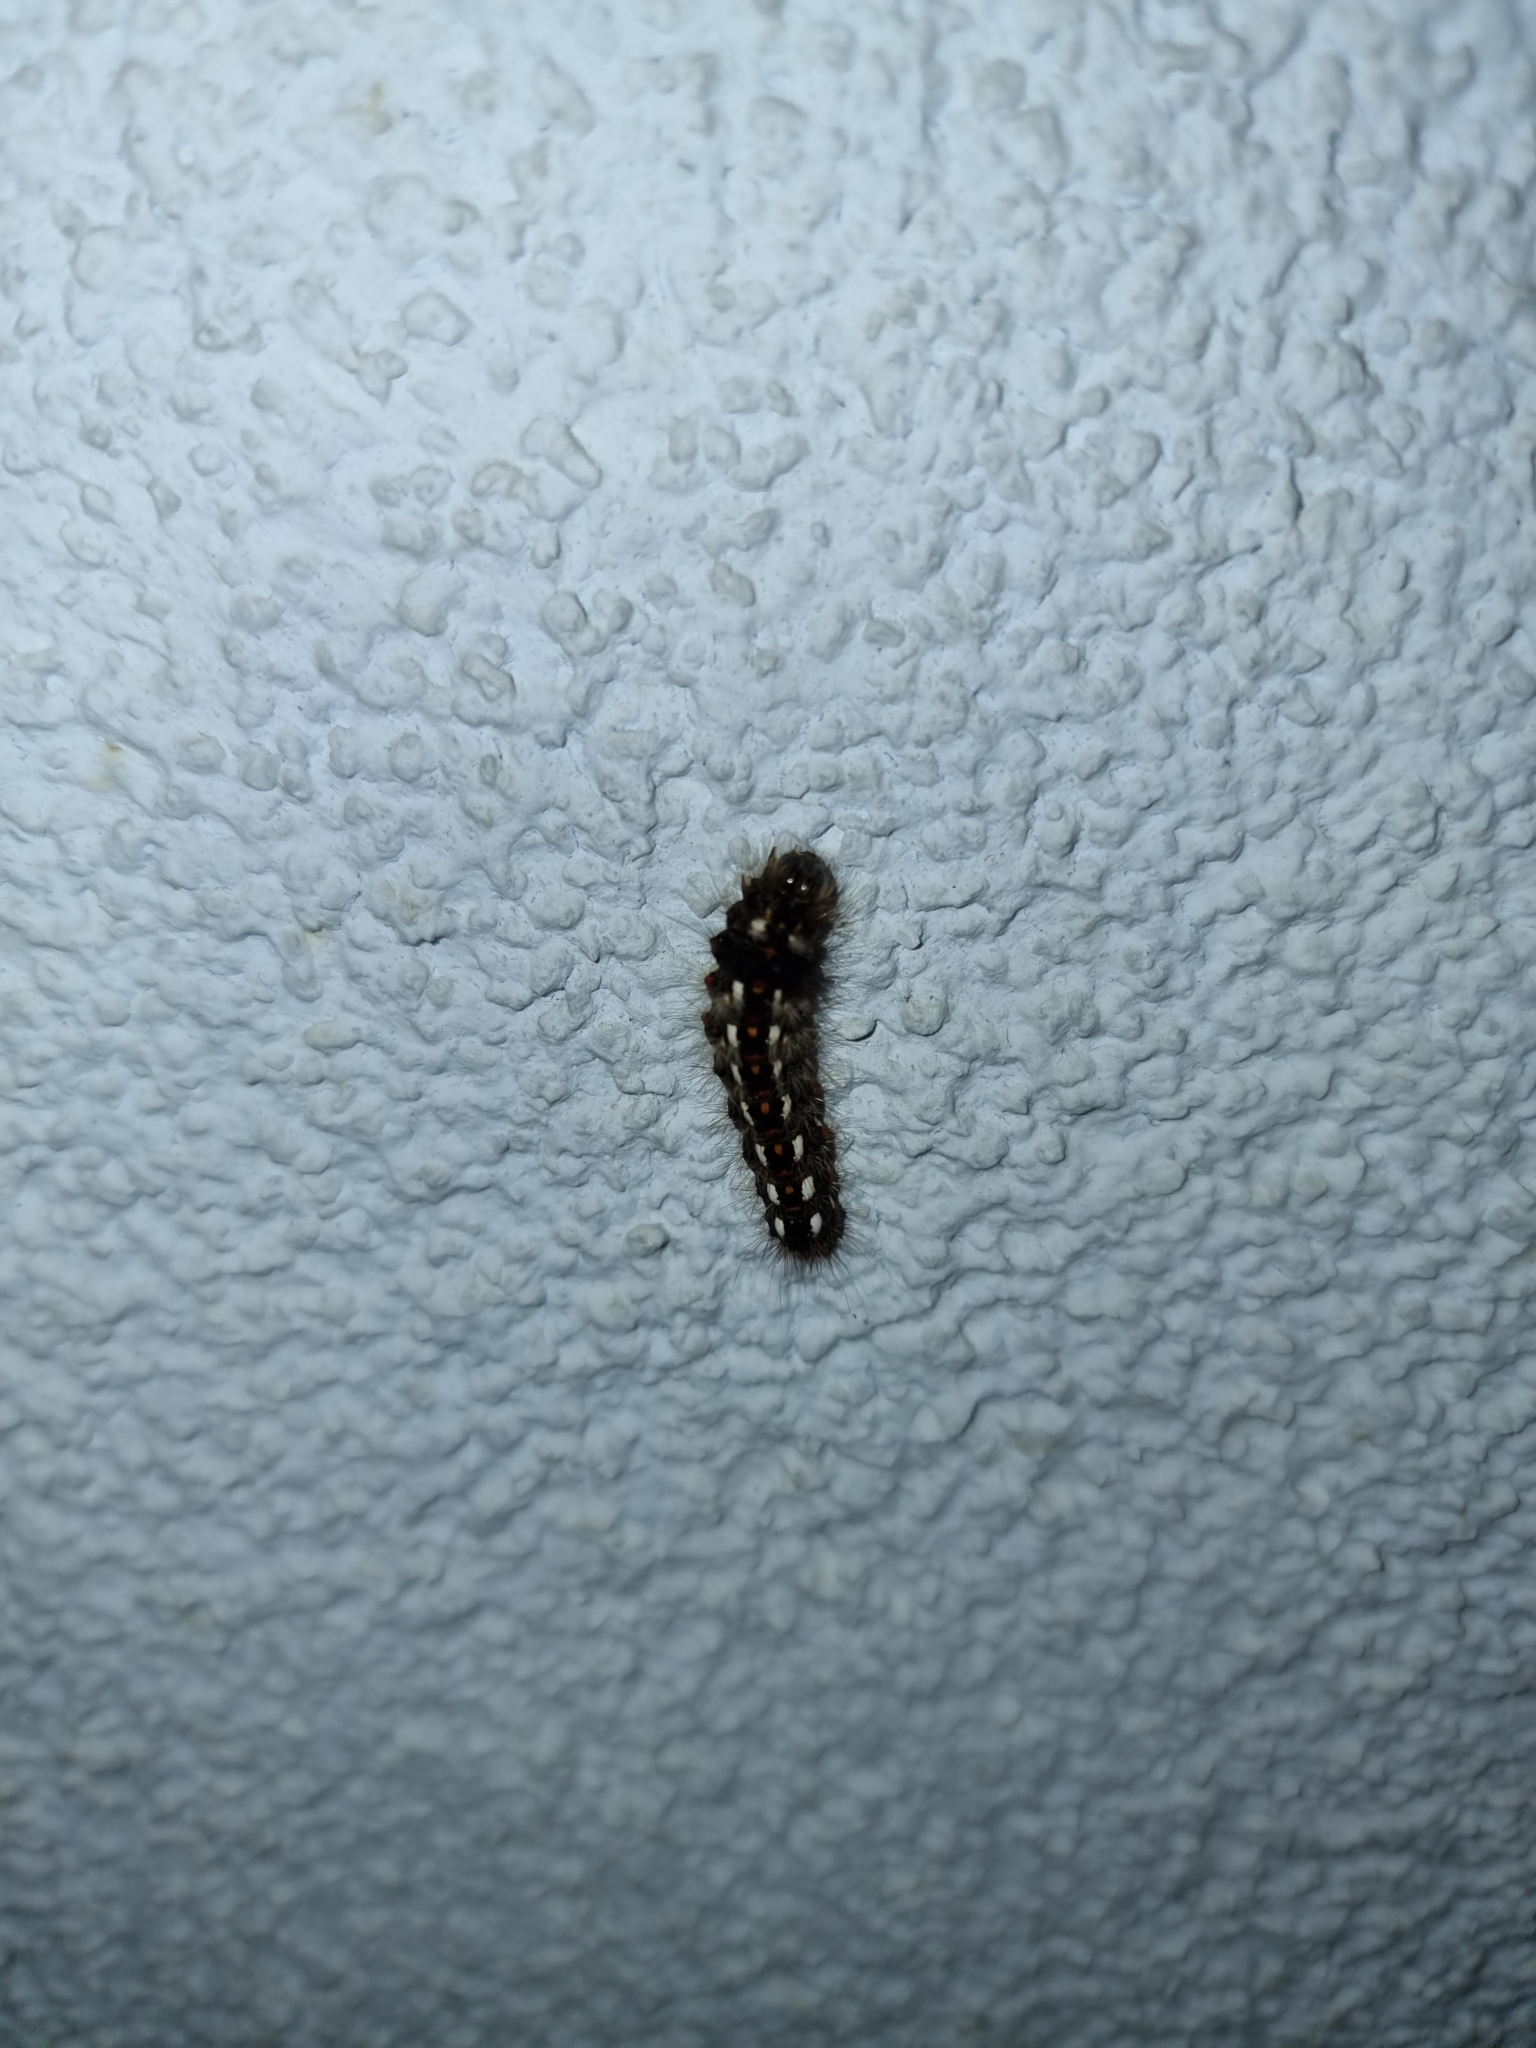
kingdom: Animalia
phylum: Arthropoda
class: Insecta
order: Lepidoptera
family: Noctuidae
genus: Acronicta
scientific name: Acronicta rumicis
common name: Knot grass
